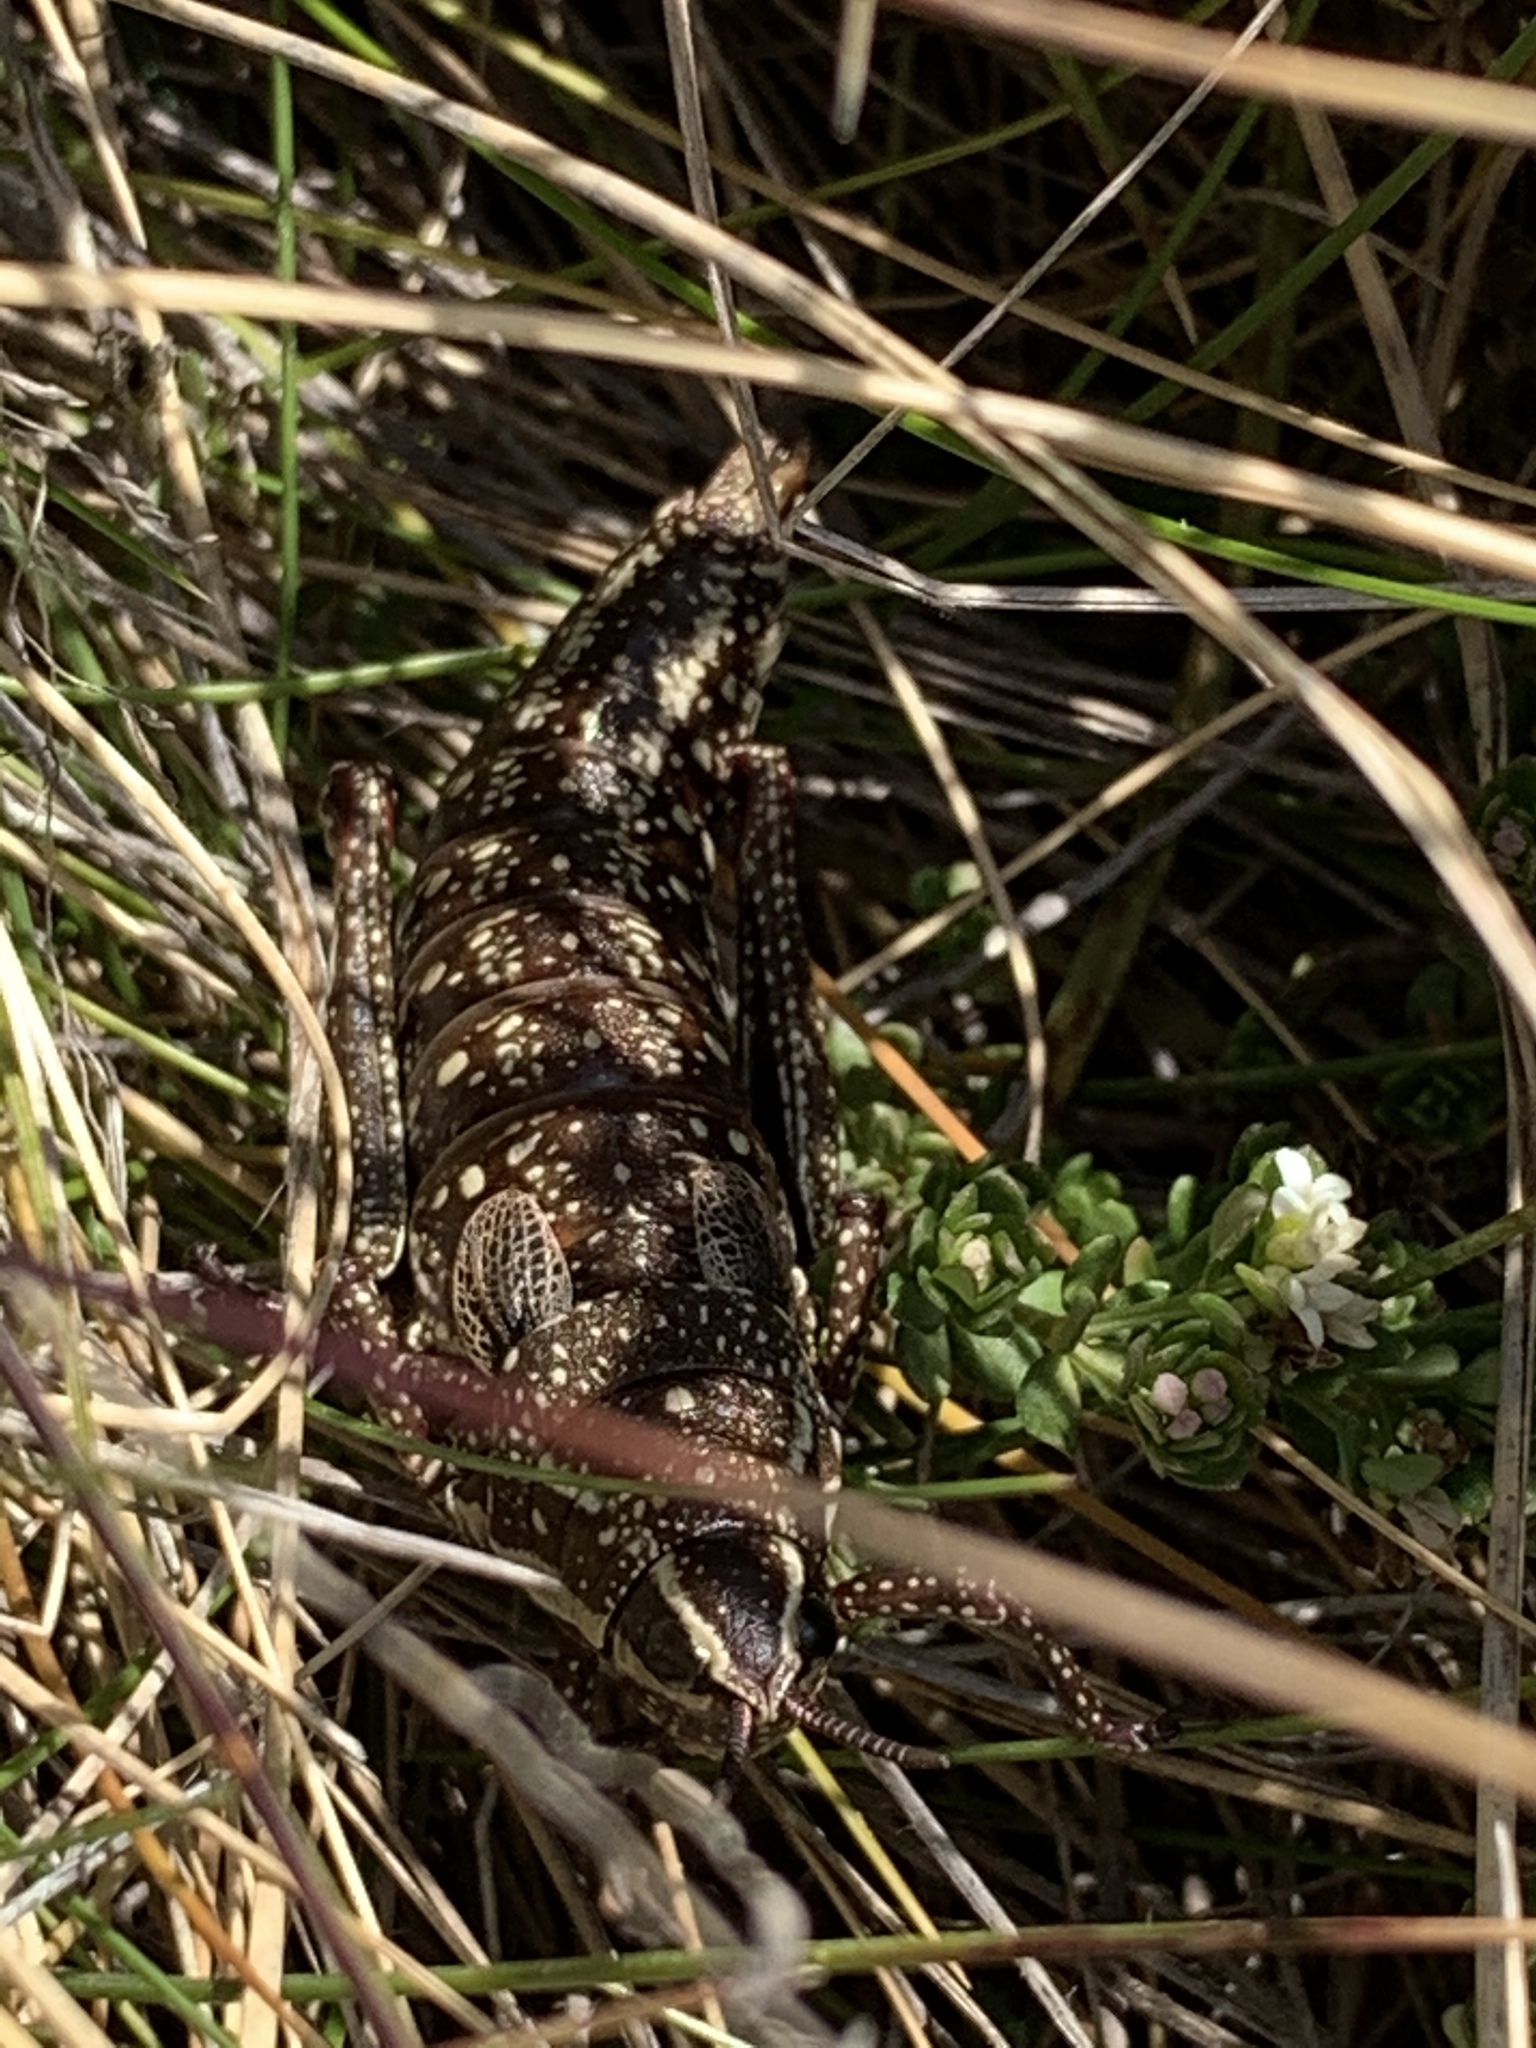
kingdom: Animalia
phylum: Arthropoda
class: Insecta
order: Orthoptera
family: Pyrgomorphidae
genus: Monistria
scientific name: Monistria concinna
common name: Southern pyrgomorph
